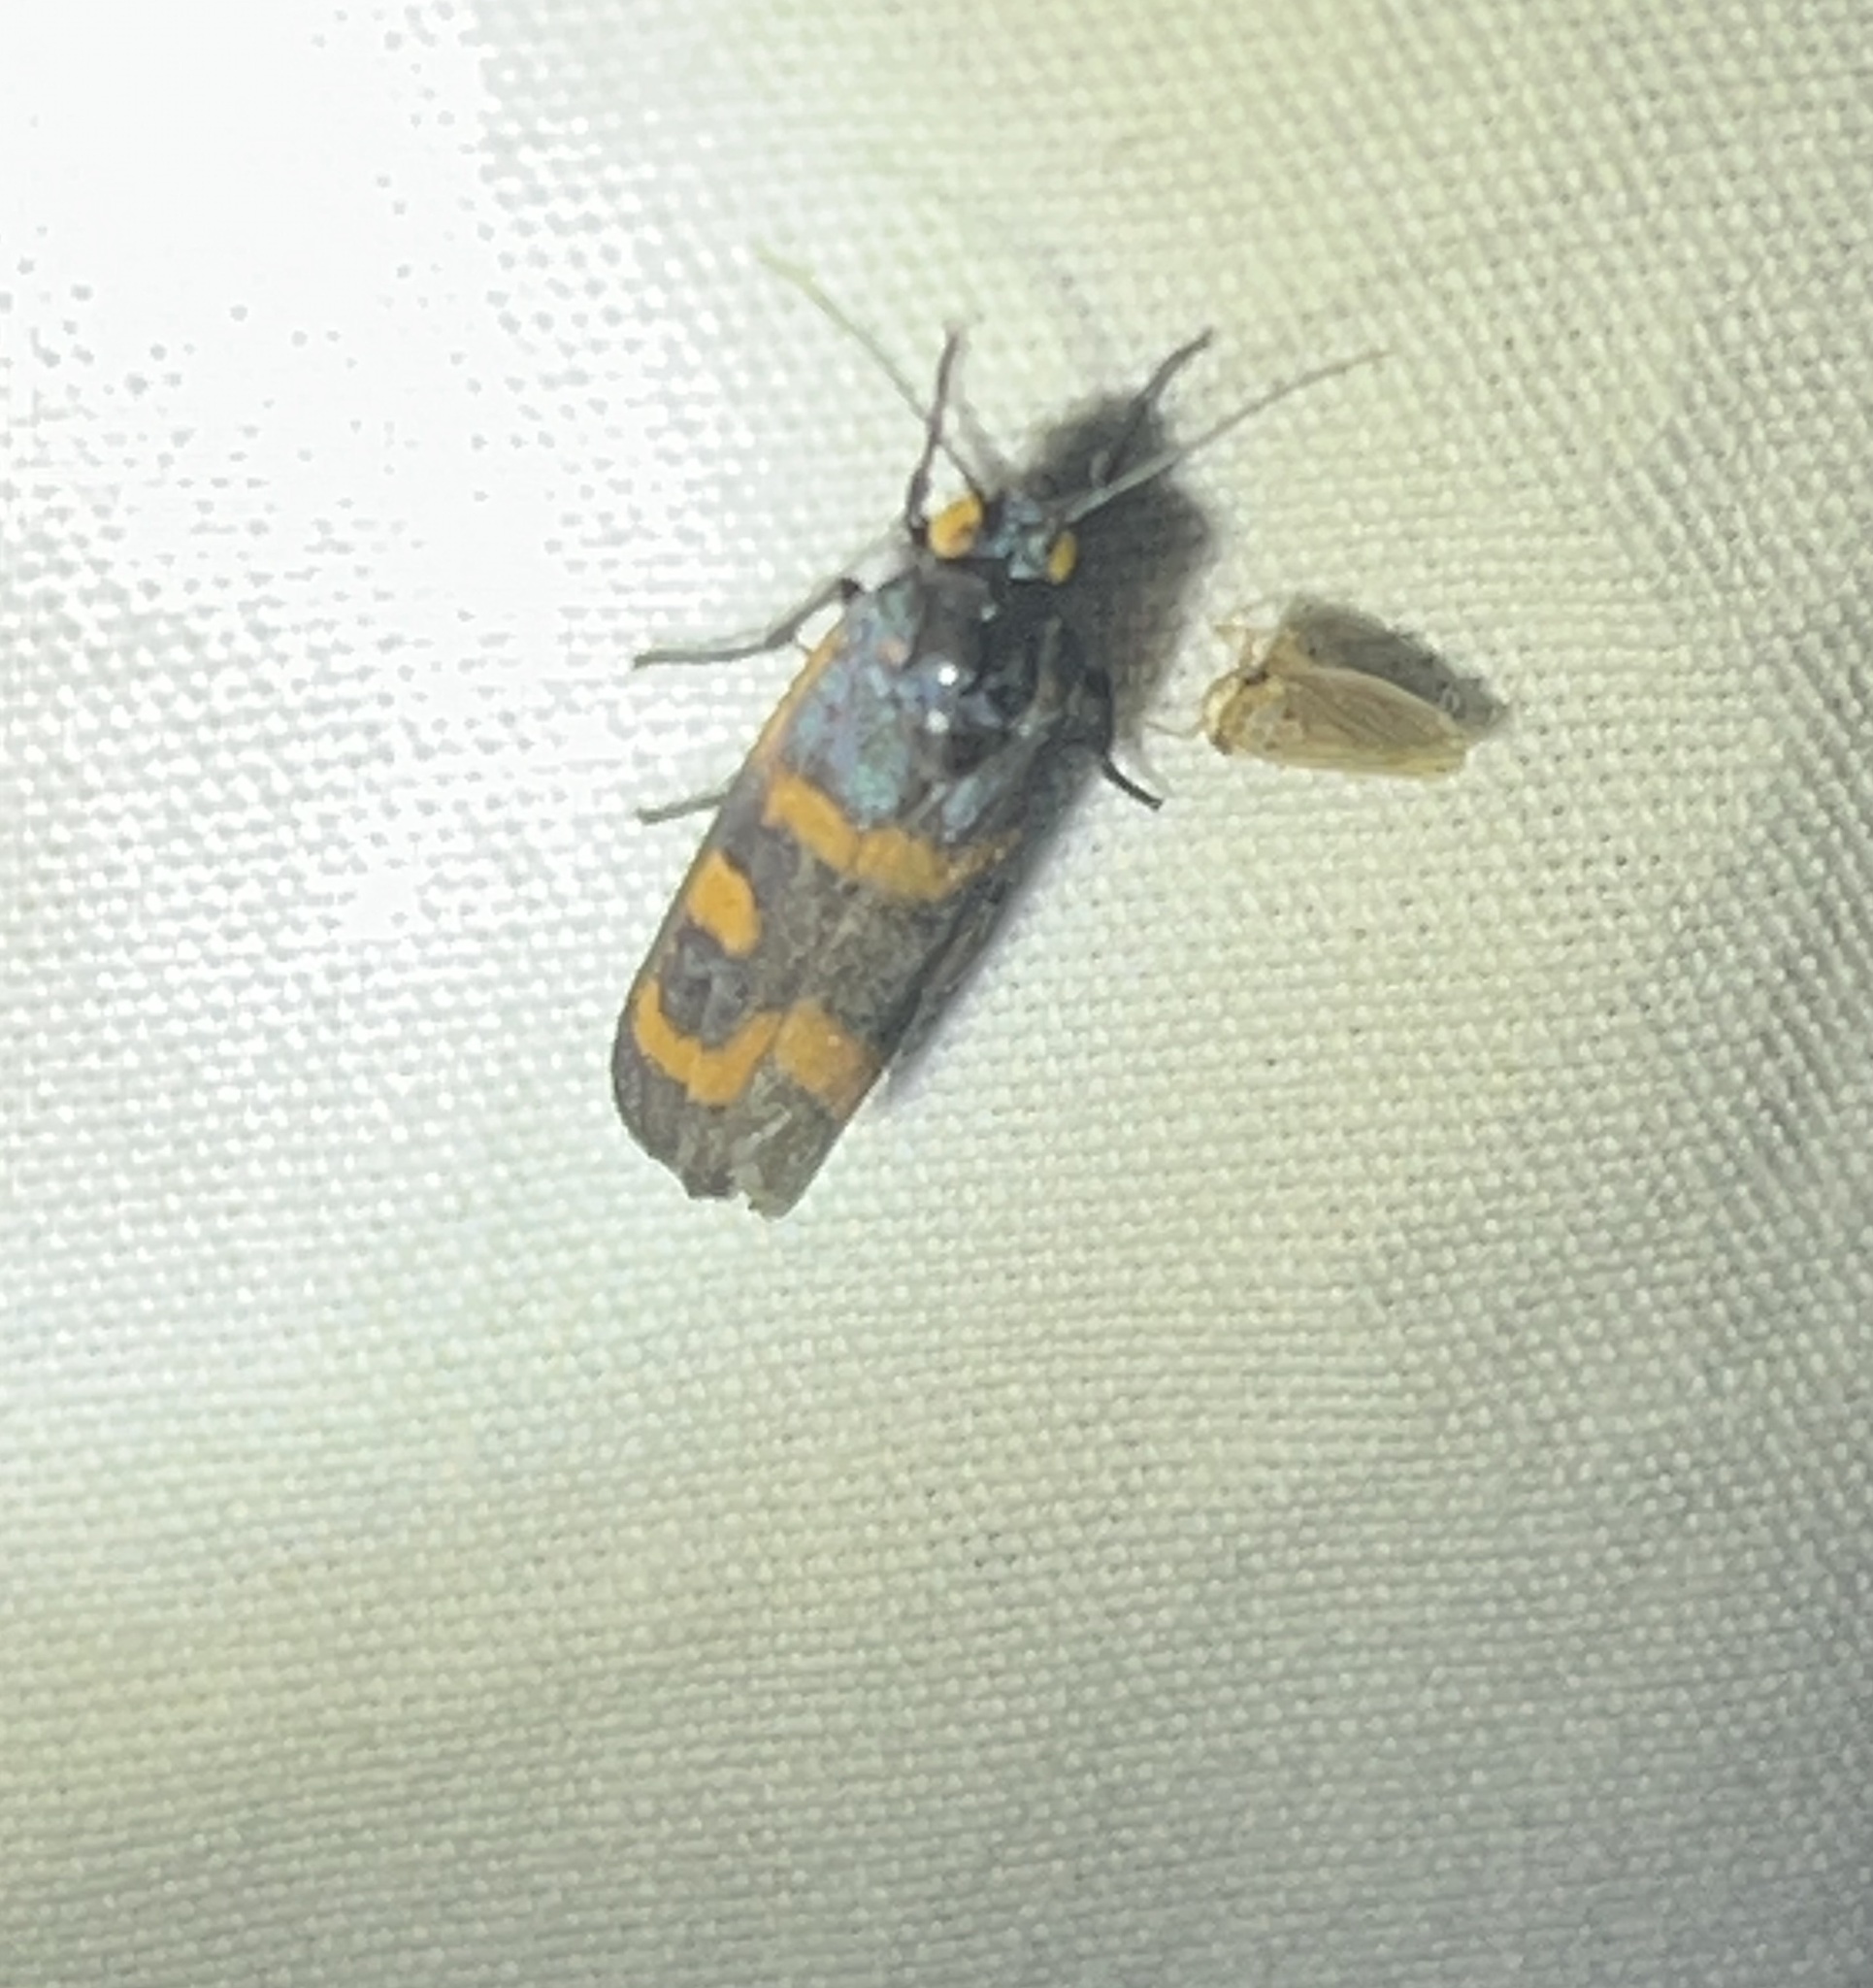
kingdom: Animalia
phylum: Arthropoda
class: Insecta
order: Lepidoptera
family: Noctuidae
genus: Cydosia
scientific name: Cydosia aurivitta
